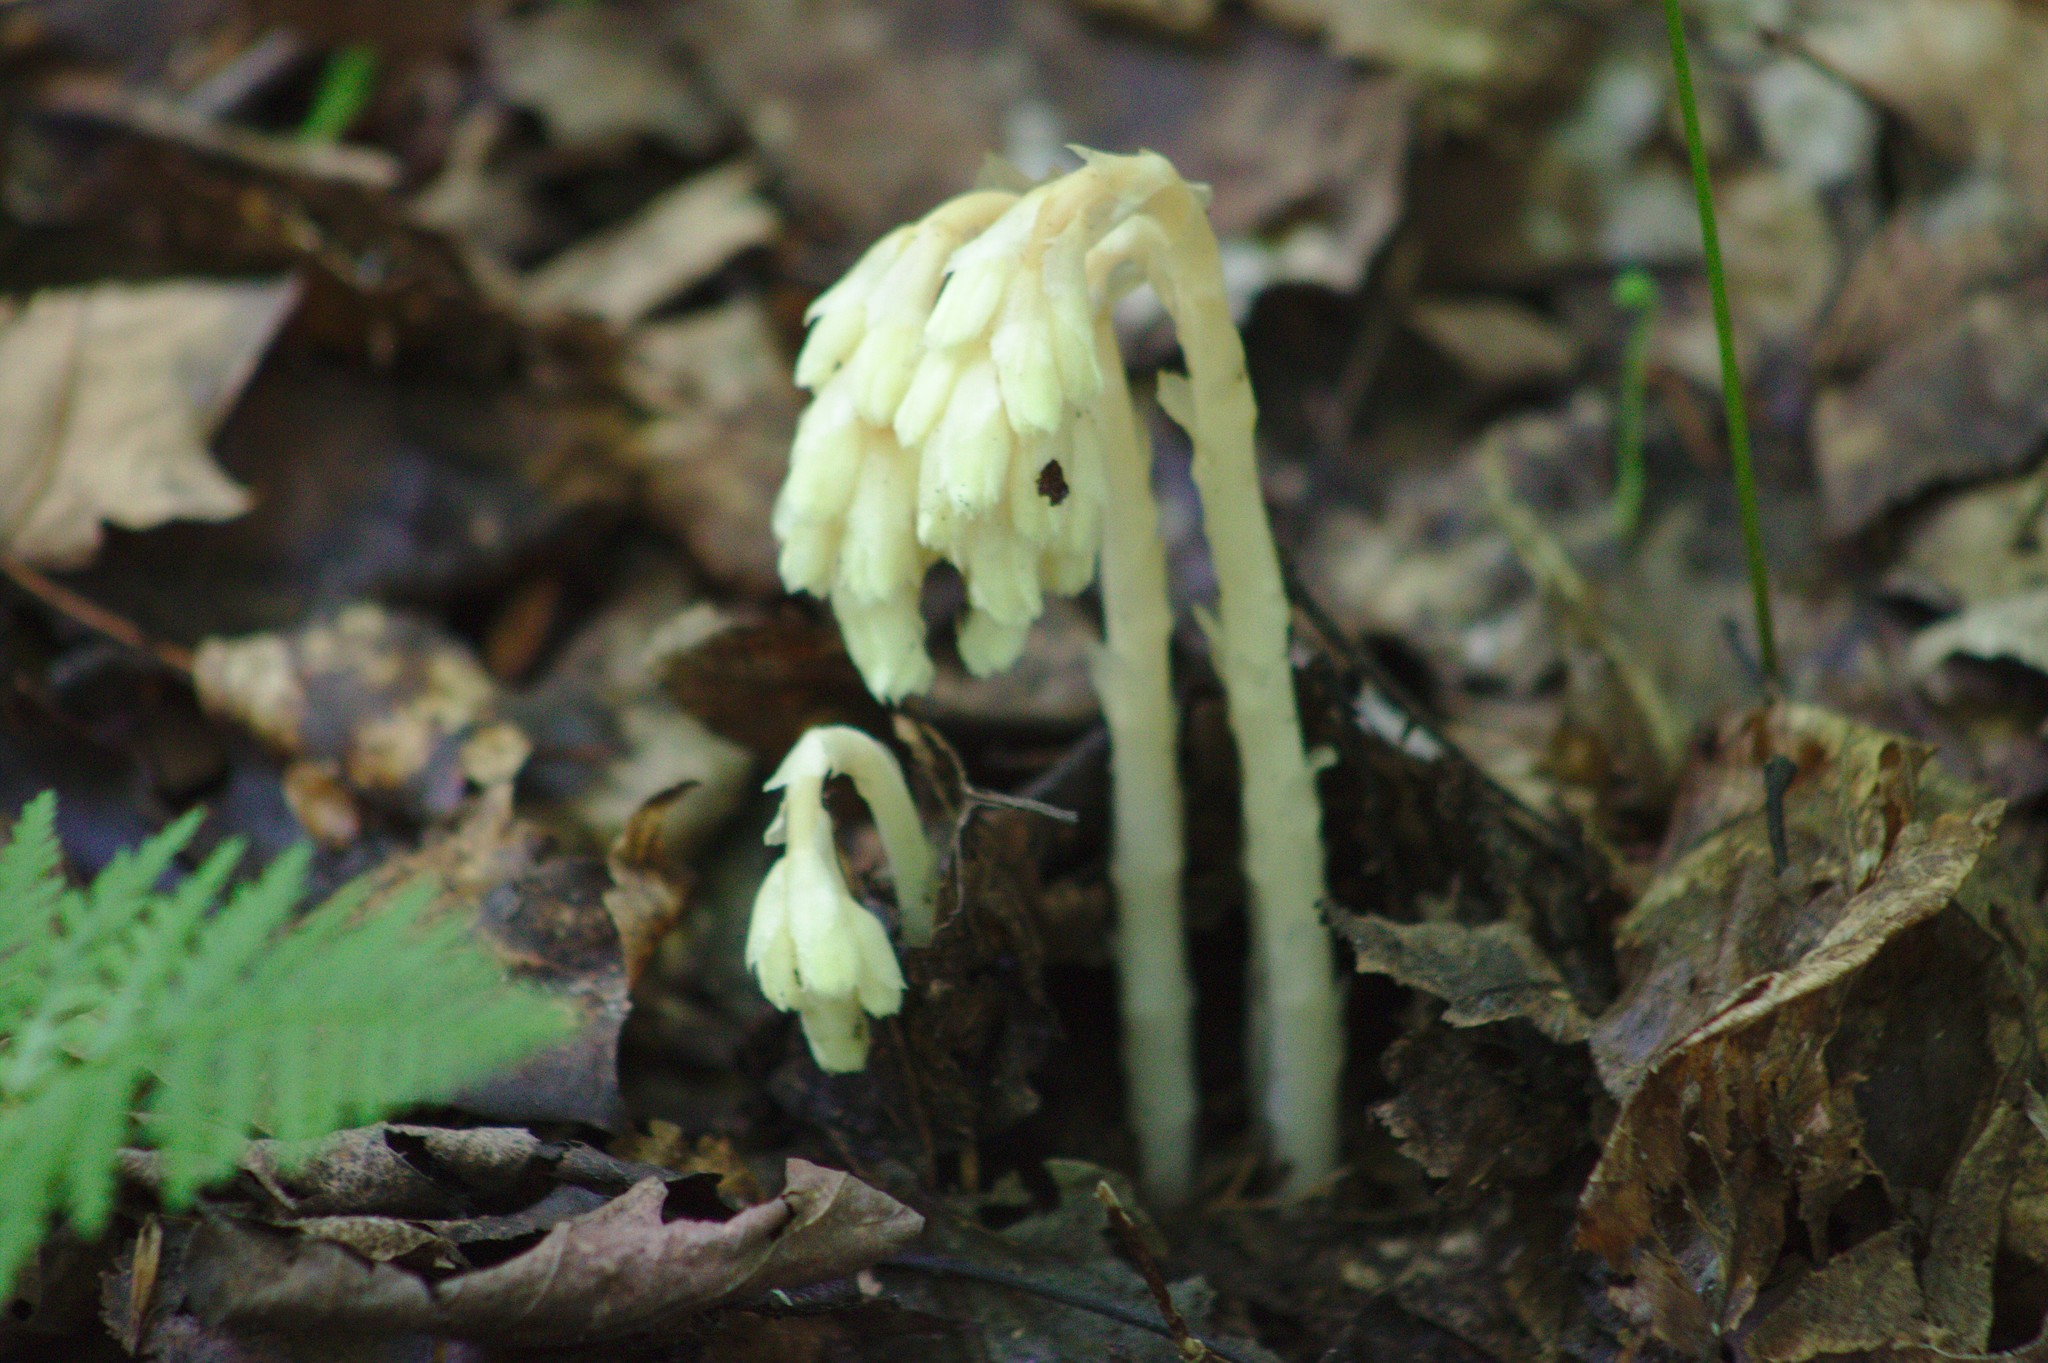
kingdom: Plantae
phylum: Tracheophyta
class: Magnoliopsida
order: Ericales
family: Ericaceae
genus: Hypopitys
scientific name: Hypopitys monotropa
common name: Yellow bird's-nest
